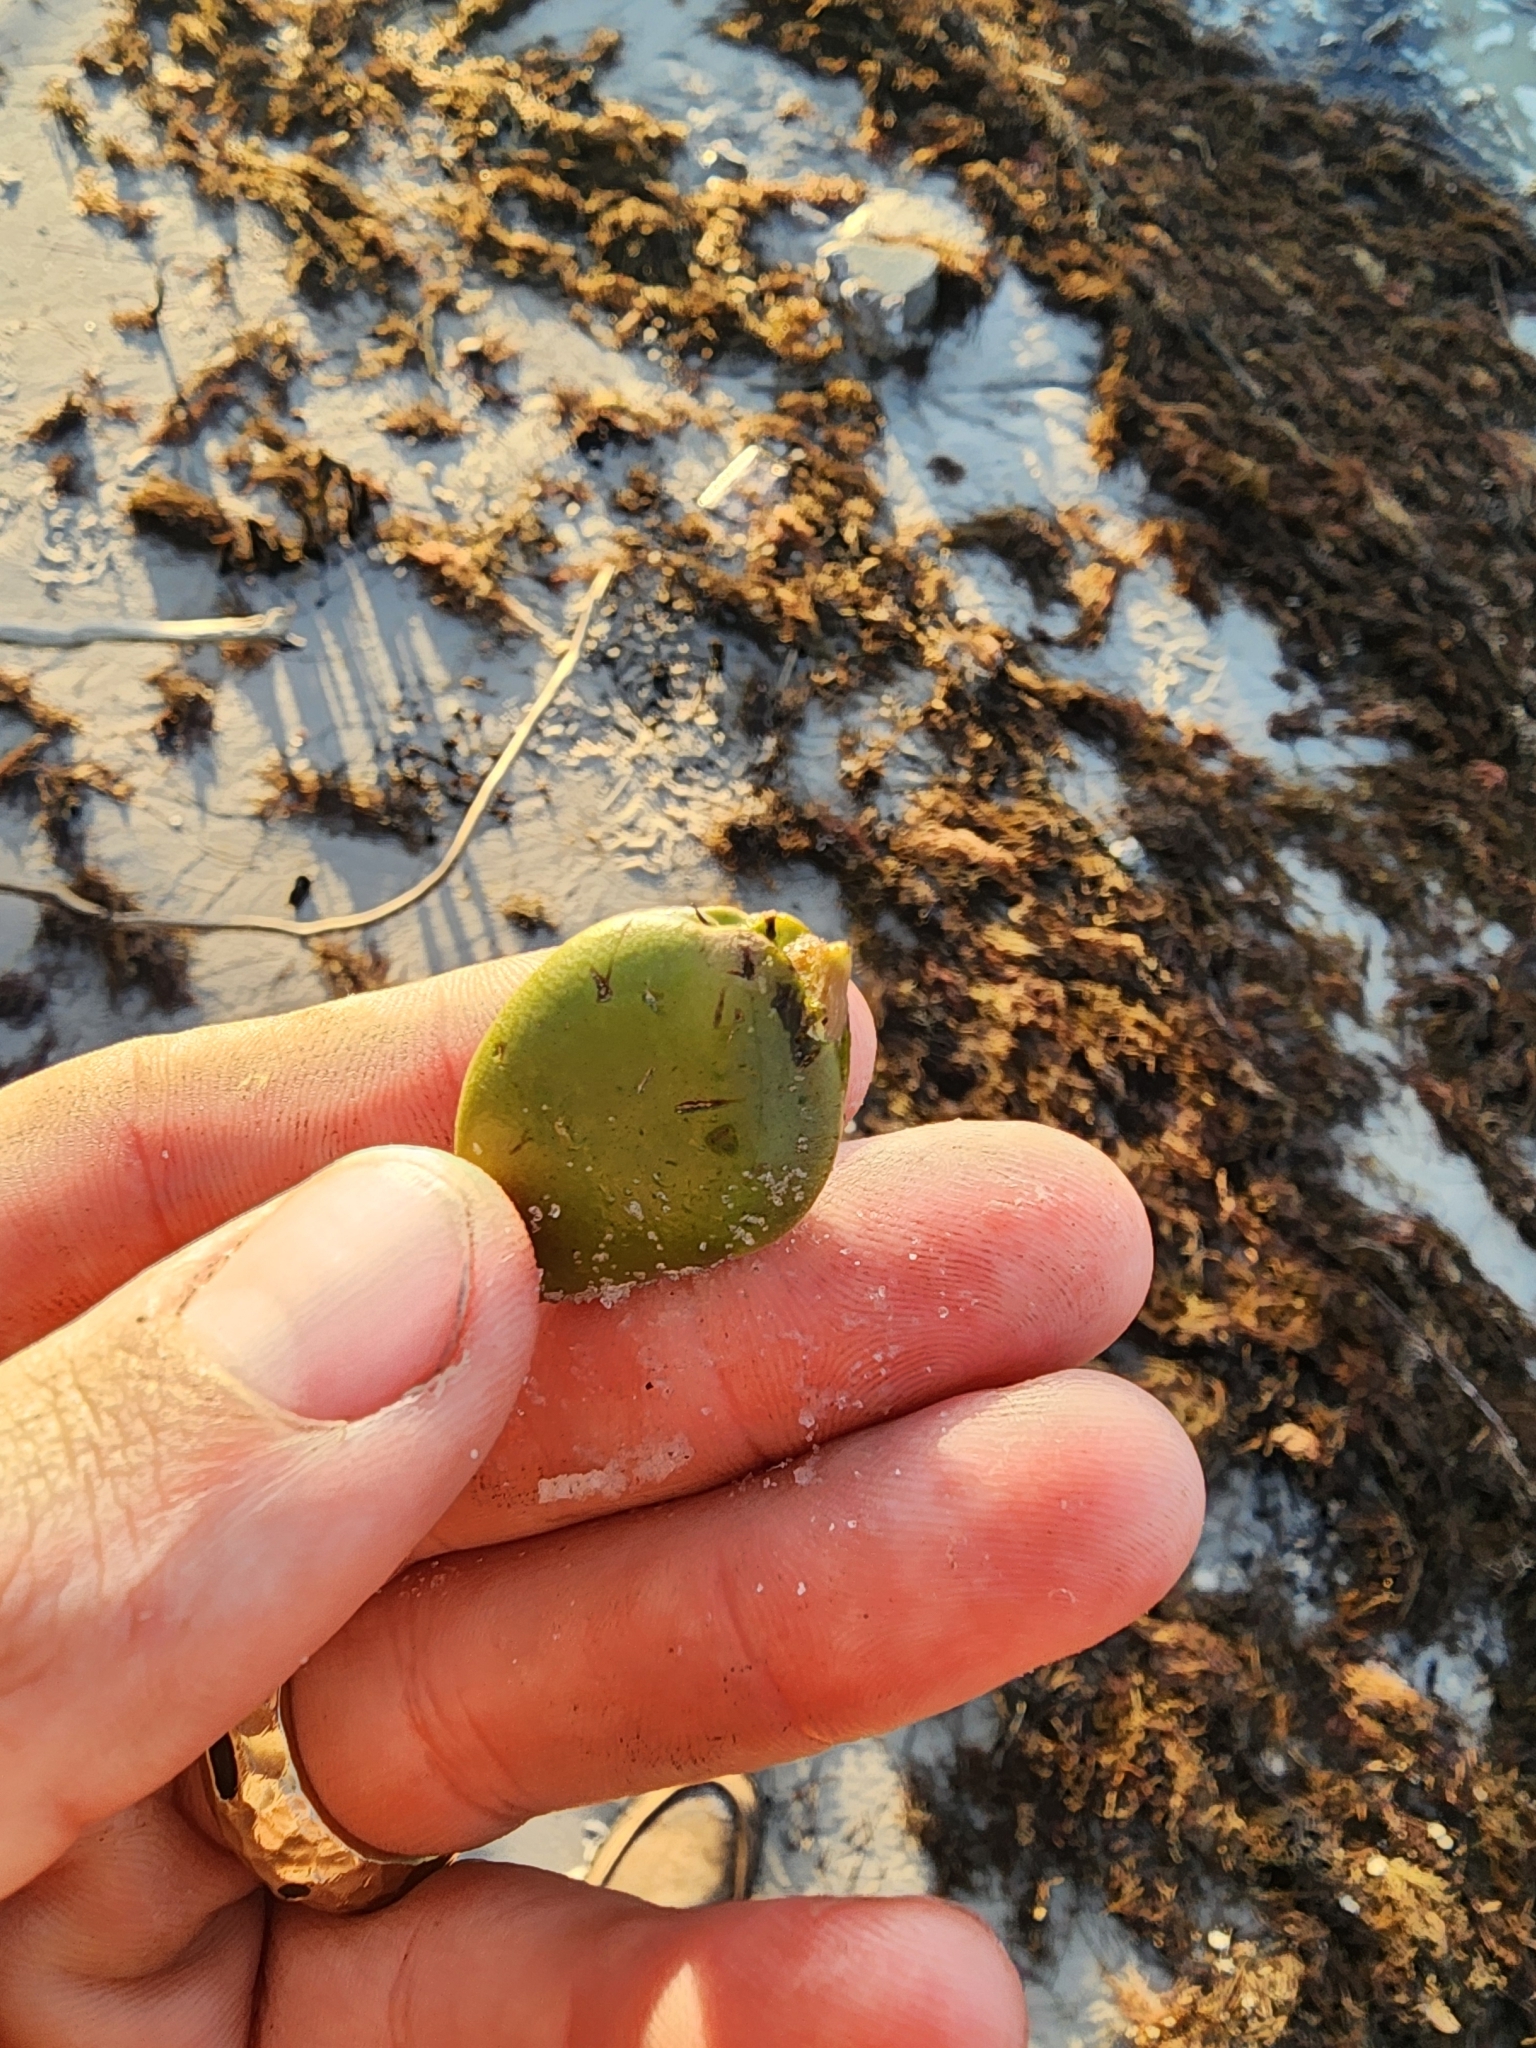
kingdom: Plantae
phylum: Tracheophyta
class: Magnoliopsida
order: Lamiales
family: Acanthaceae
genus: Avicennia
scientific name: Avicennia germinans
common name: Black mangrove
